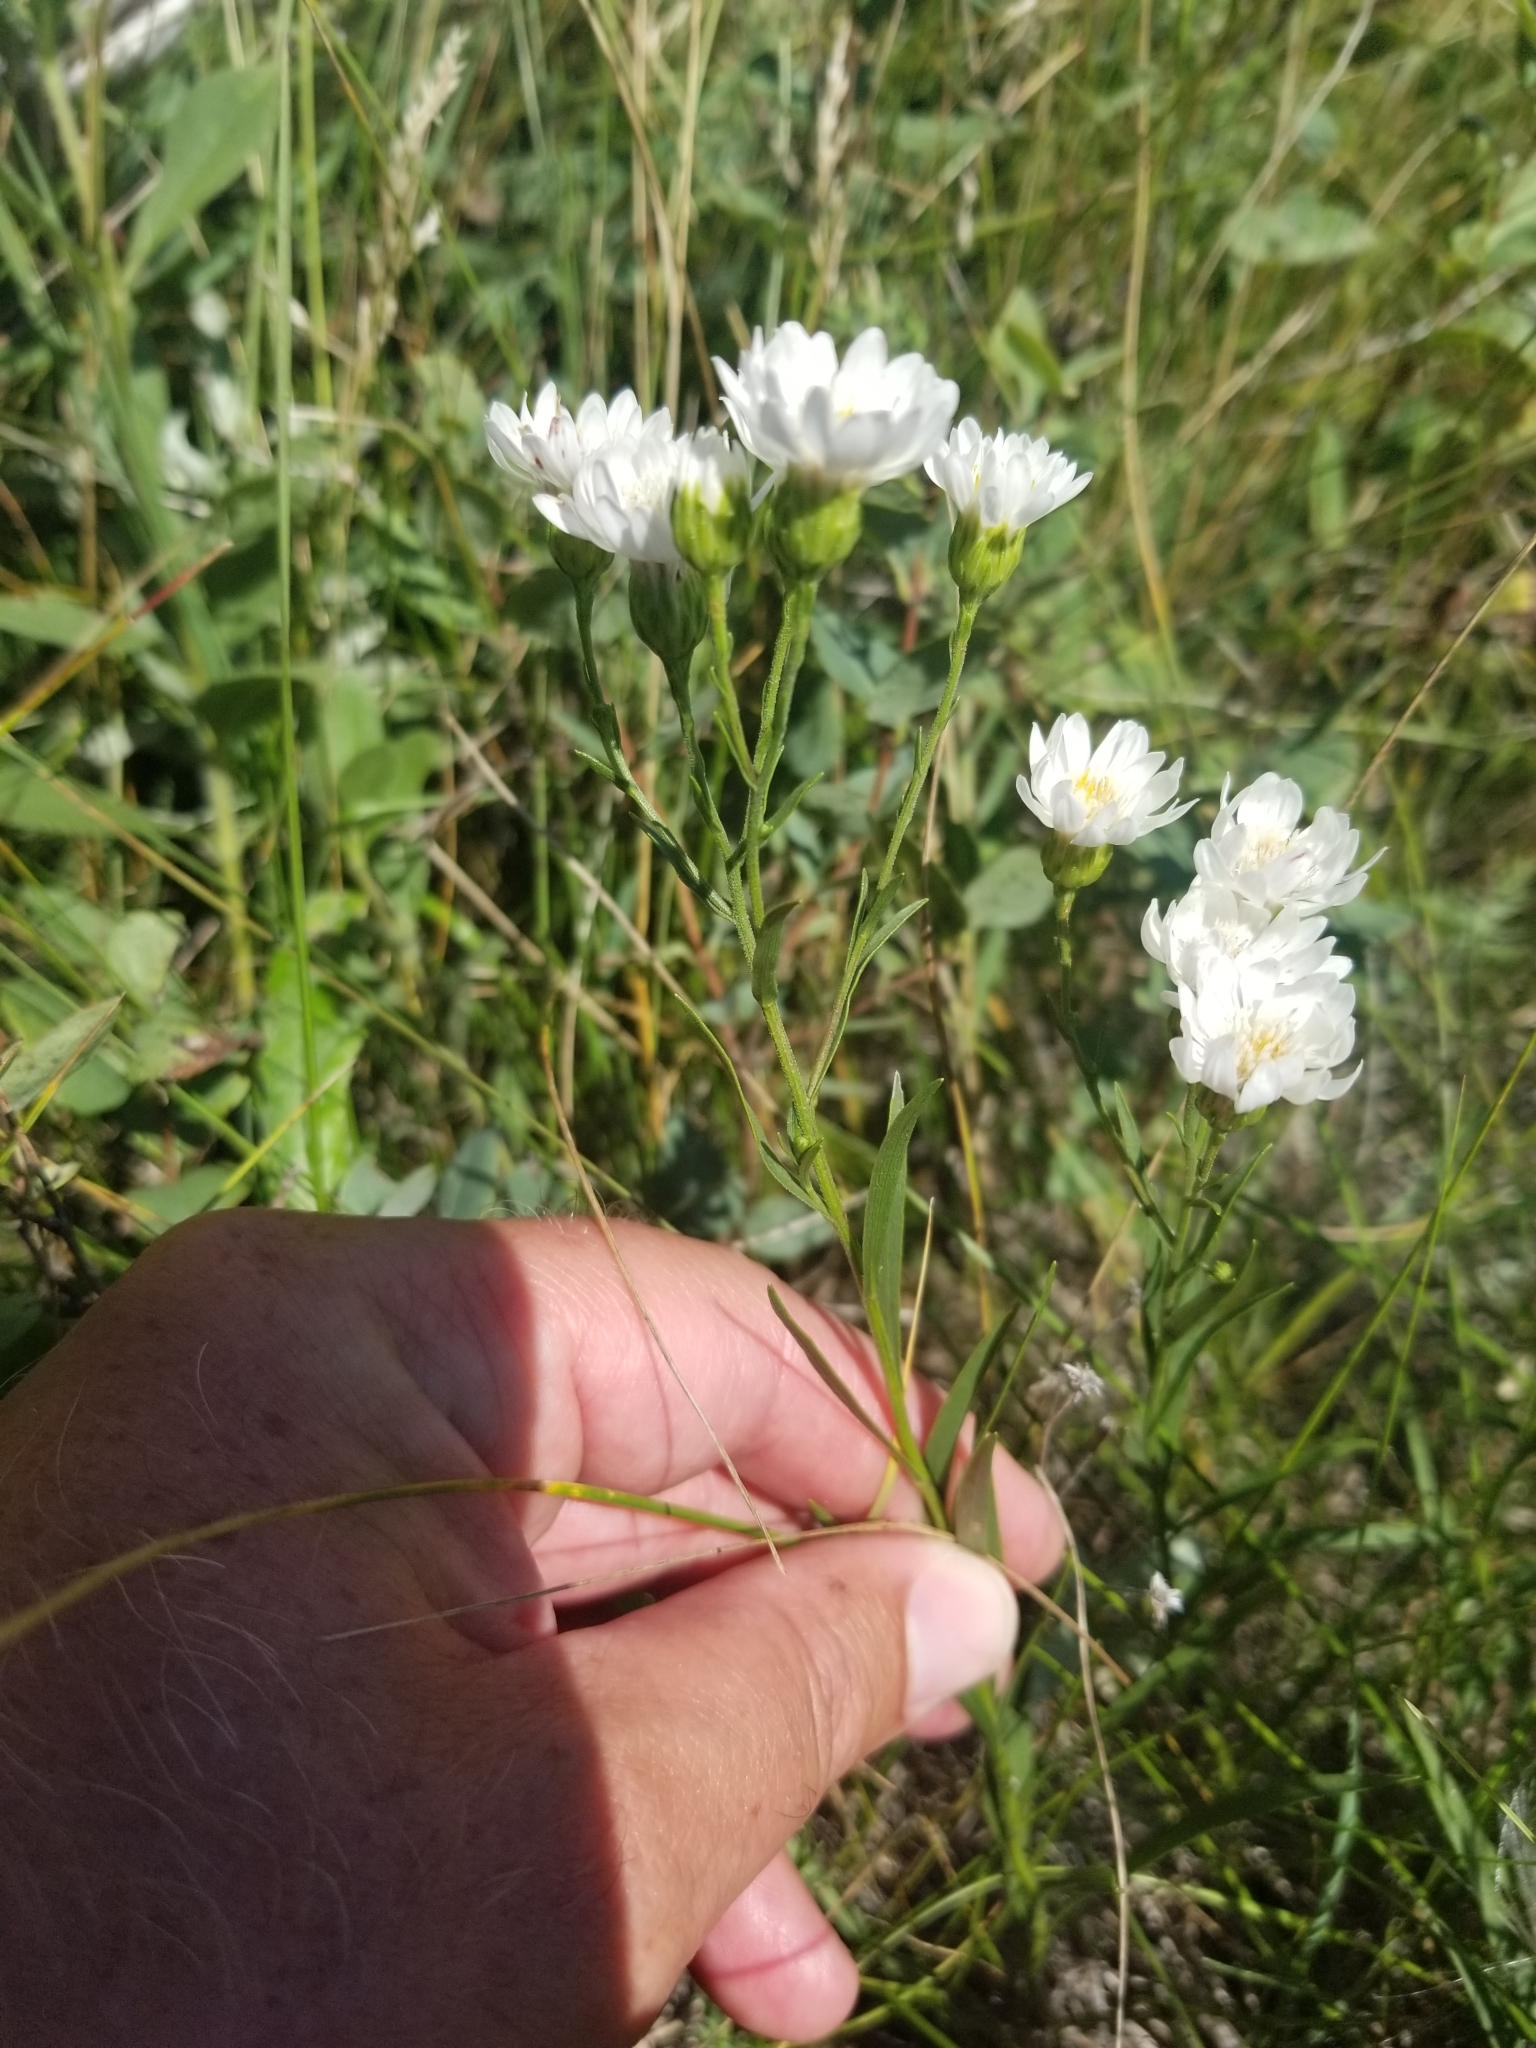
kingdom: Plantae
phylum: Tracheophyta
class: Magnoliopsida
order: Asterales
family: Asteraceae
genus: Solidago
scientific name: Solidago ptarmicoides
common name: White flat-top goldenrod
